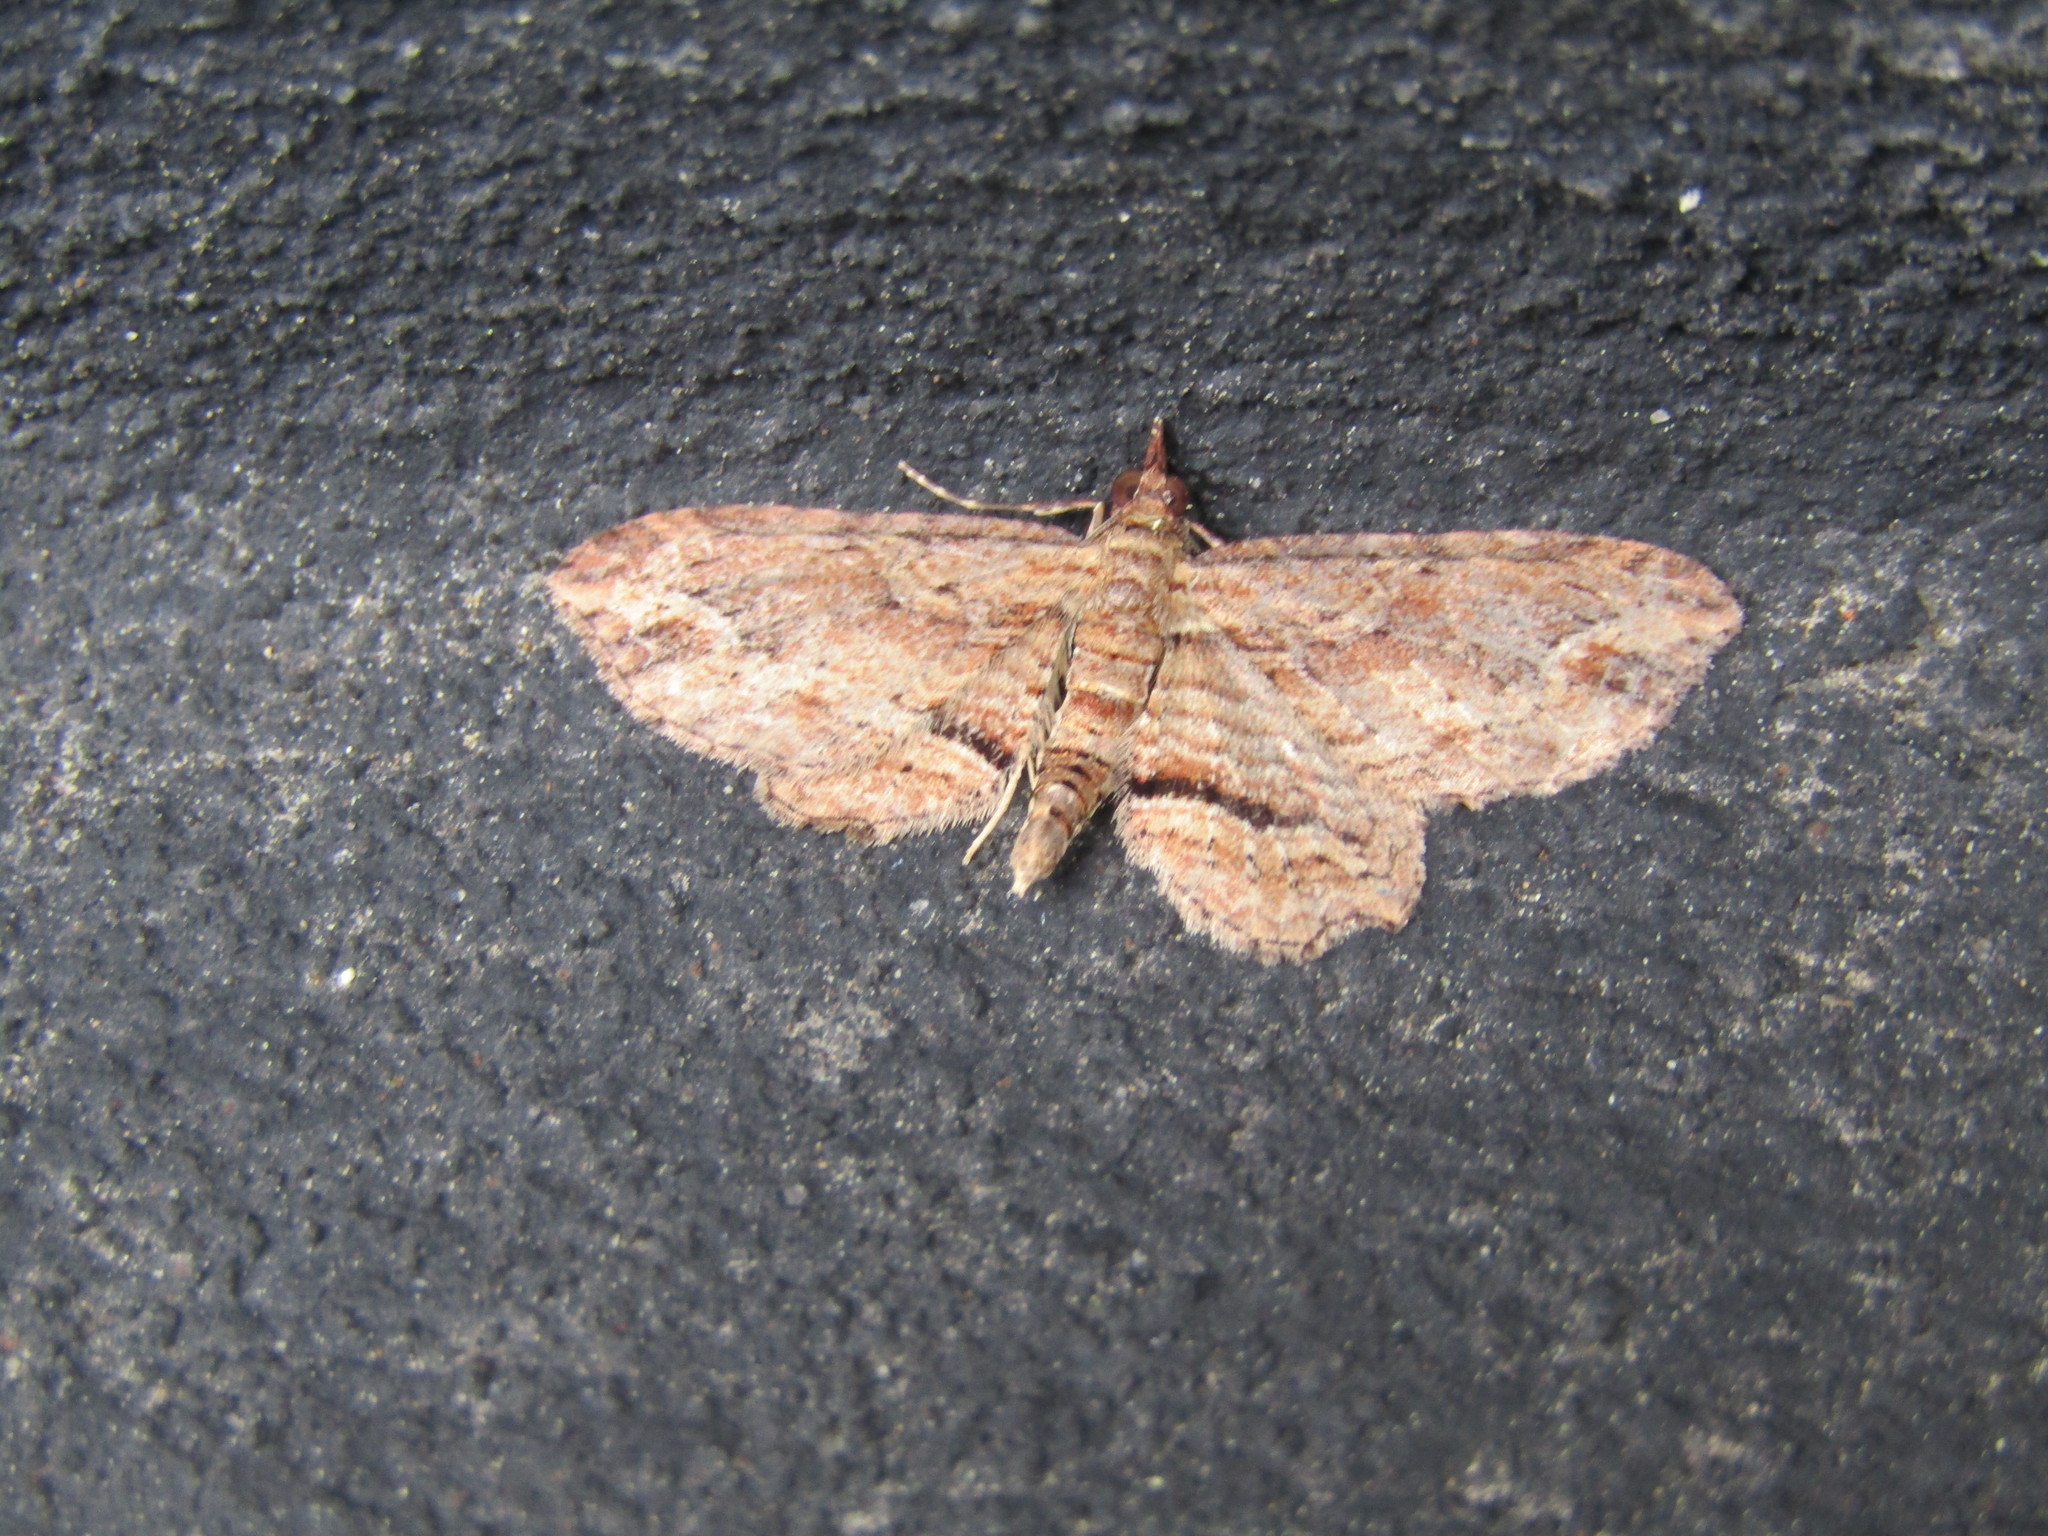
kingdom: Animalia
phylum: Arthropoda
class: Insecta
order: Lepidoptera
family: Geometridae
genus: Chloroclystis
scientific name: Chloroclystis filata
